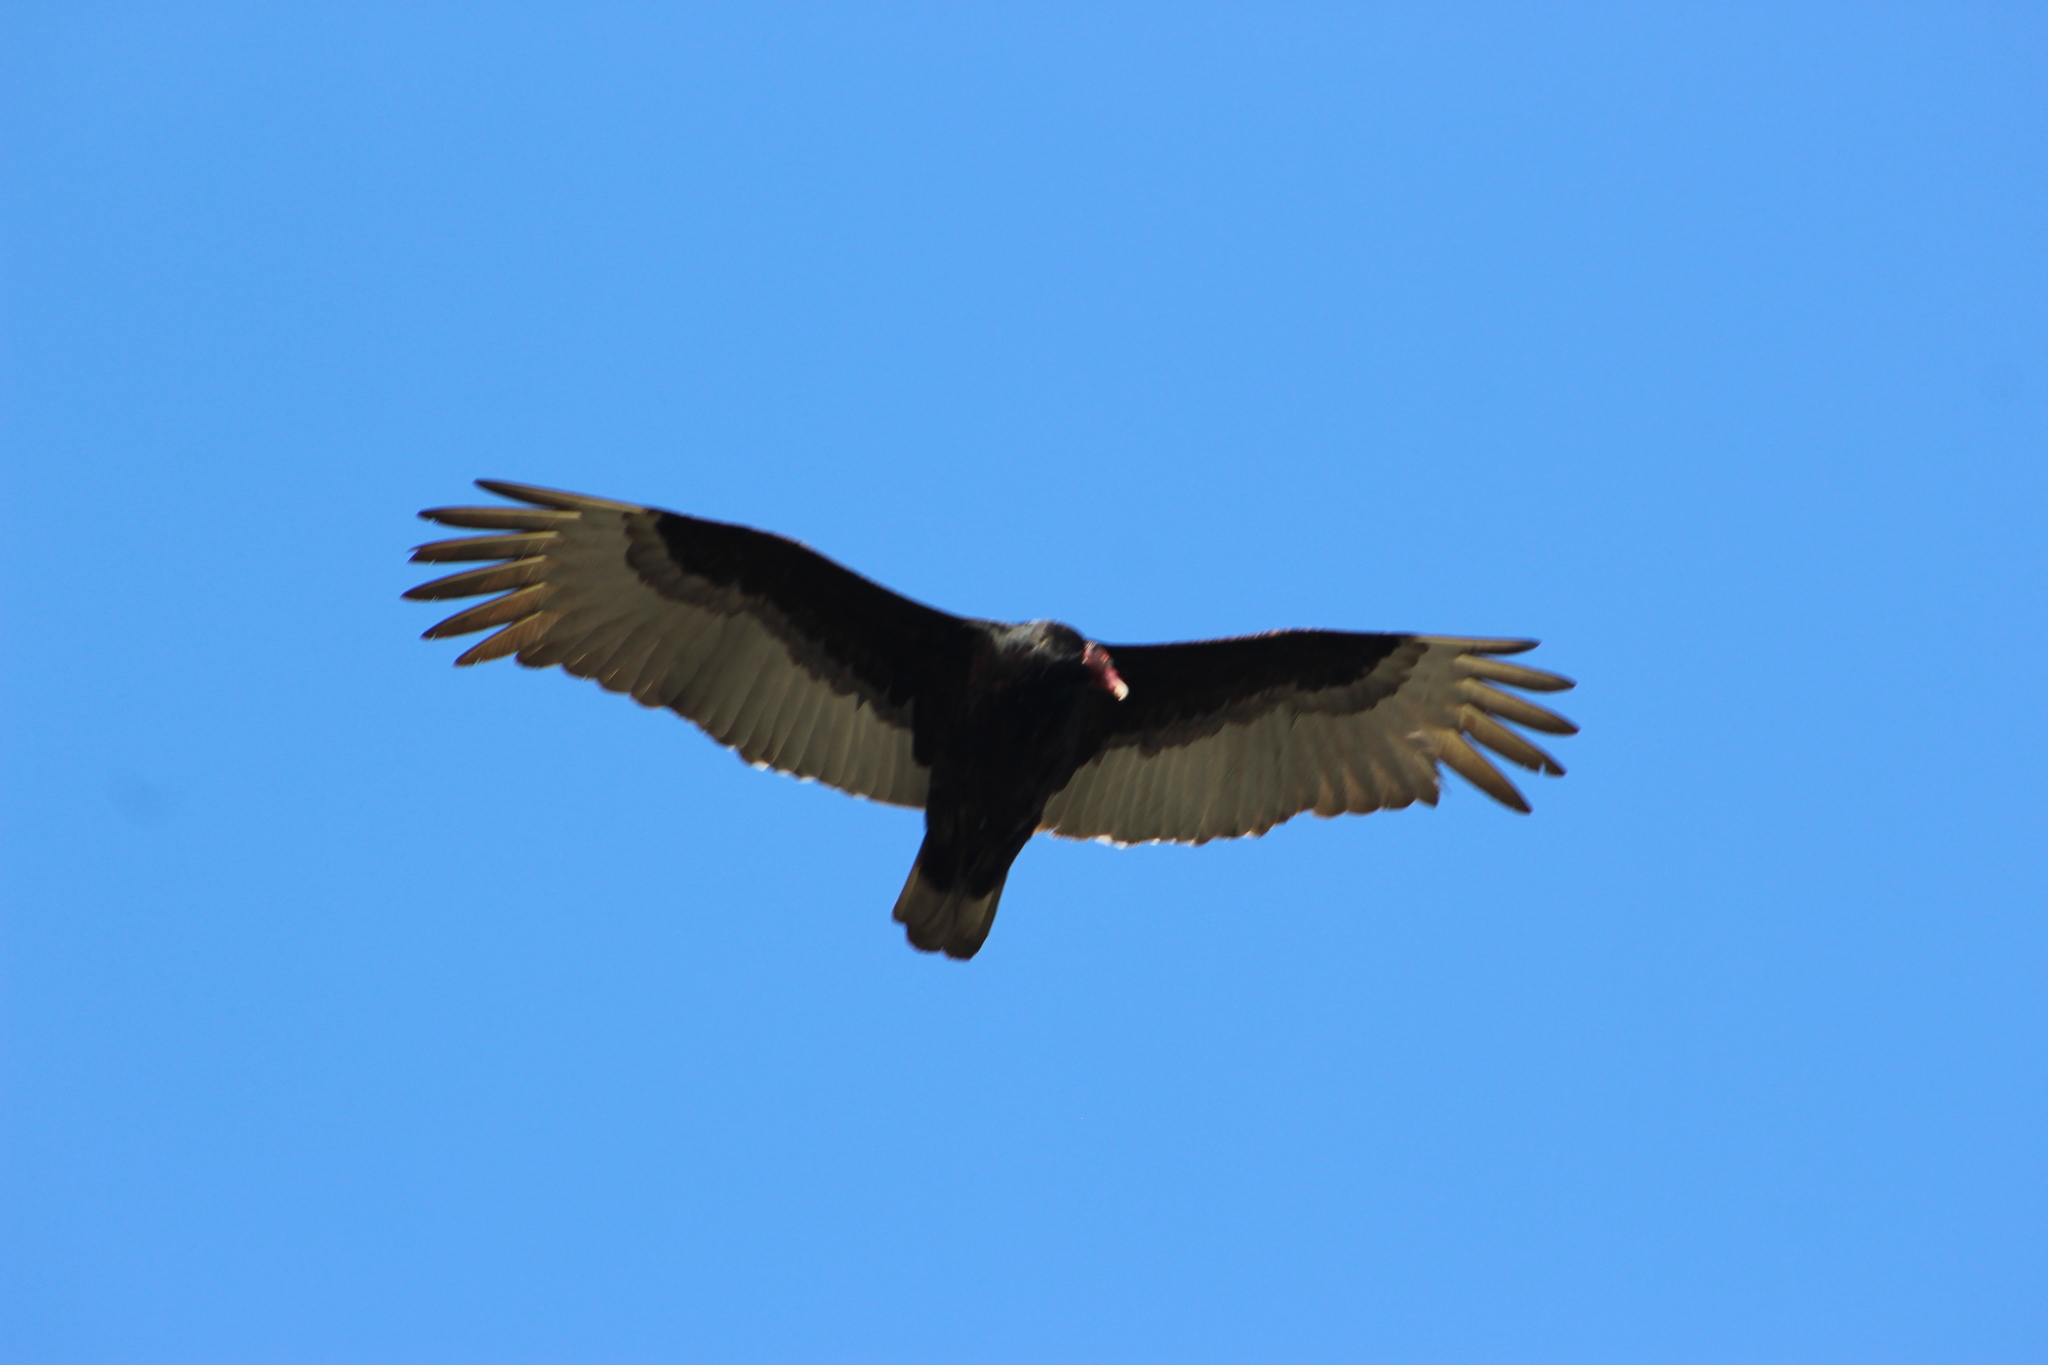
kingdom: Animalia
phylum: Chordata
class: Aves
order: Accipitriformes
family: Cathartidae
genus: Cathartes
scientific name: Cathartes aura
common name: Turkey vulture
